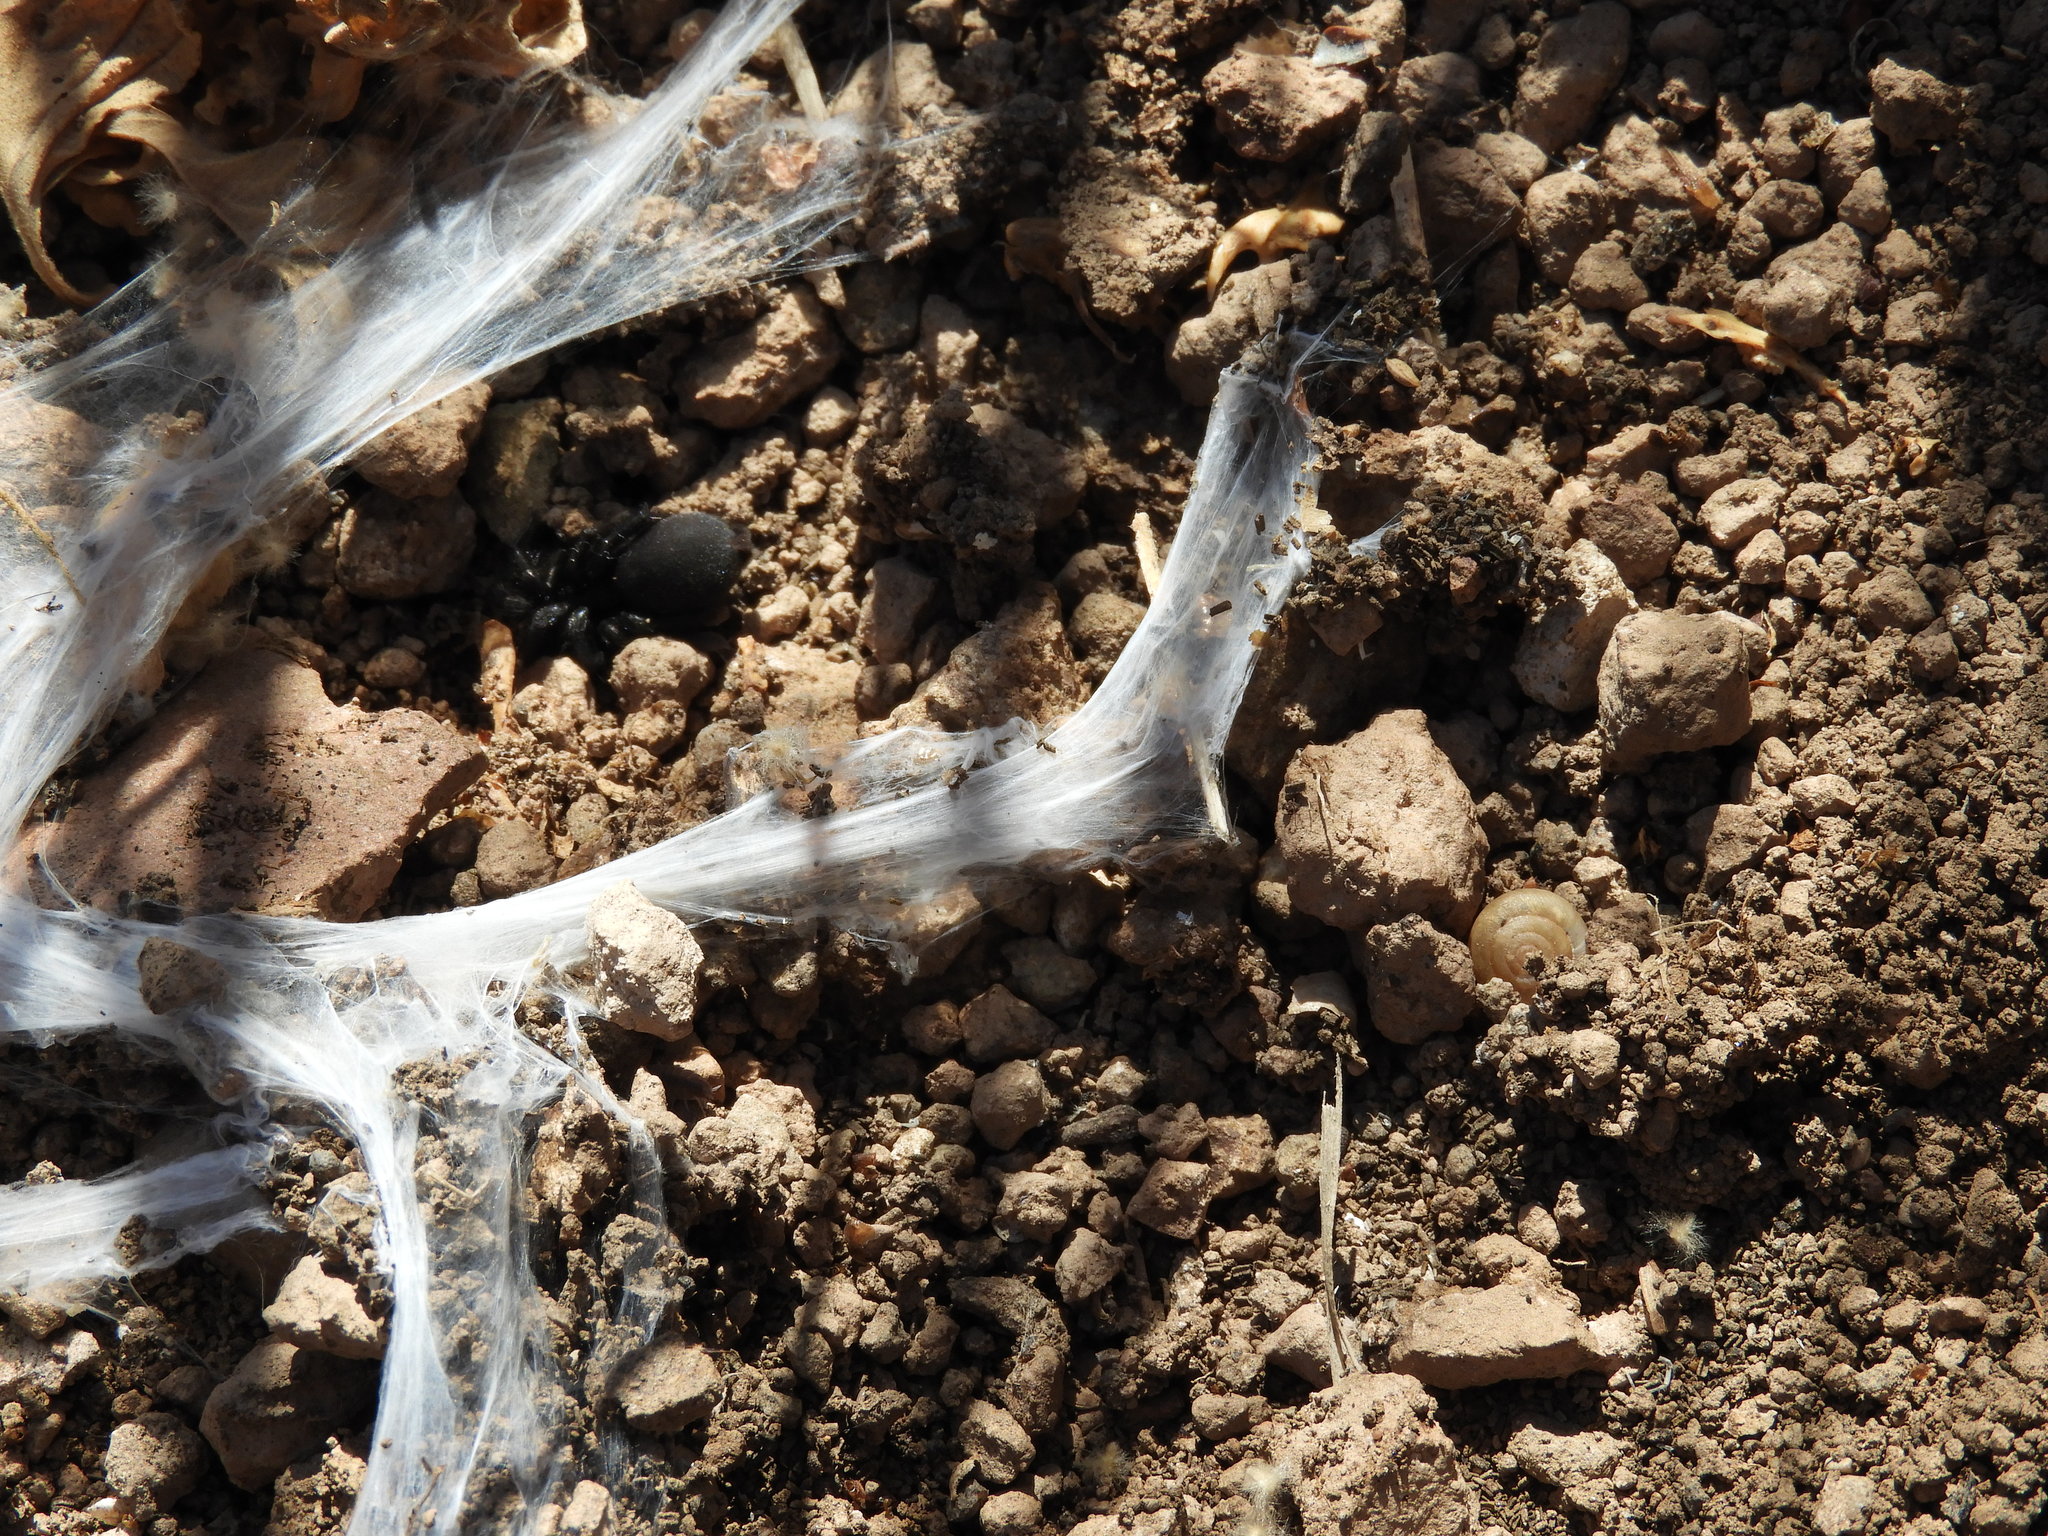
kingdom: Animalia
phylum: Arthropoda
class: Arachnida
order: Araneae
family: Euagridae
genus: Euagrus
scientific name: Euagrus gertschi
